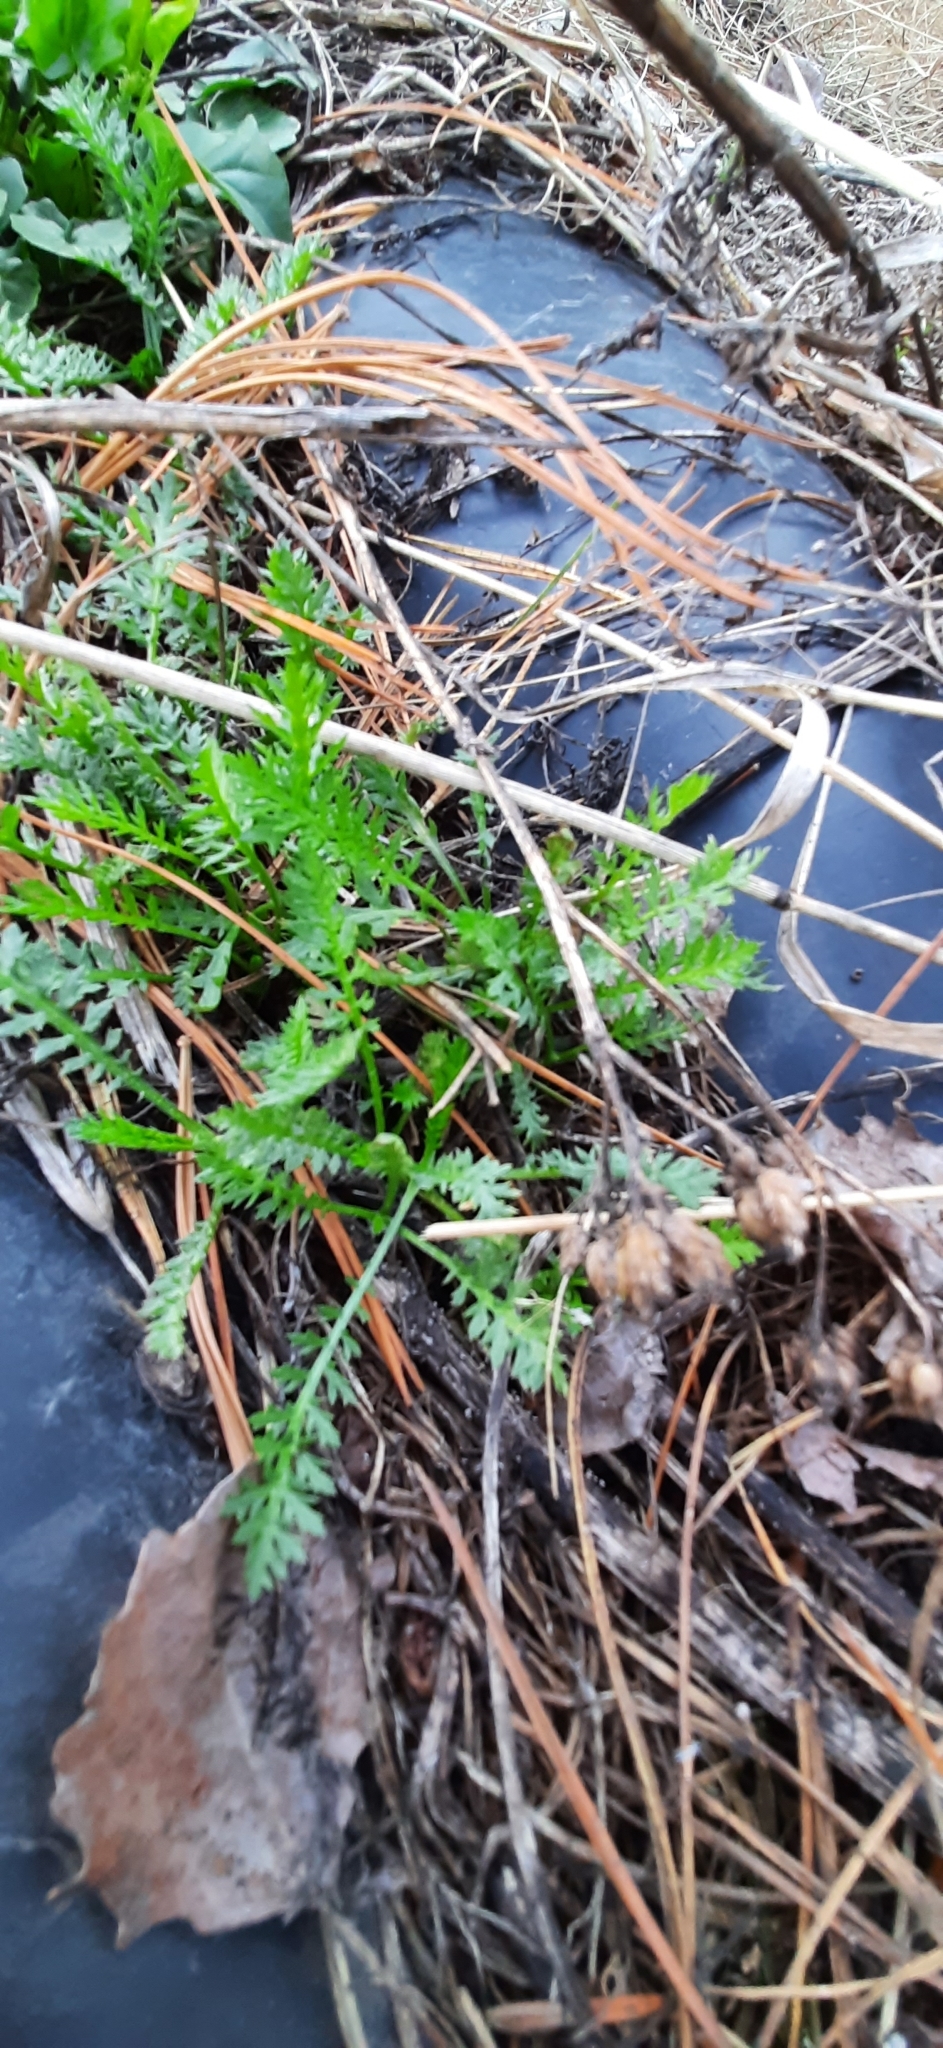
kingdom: Plantae
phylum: Tracheophyta
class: Magnoliopsida
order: Asterales
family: Asteraceae
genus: Achillea
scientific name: Achillea millefolium
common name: Yarrow
